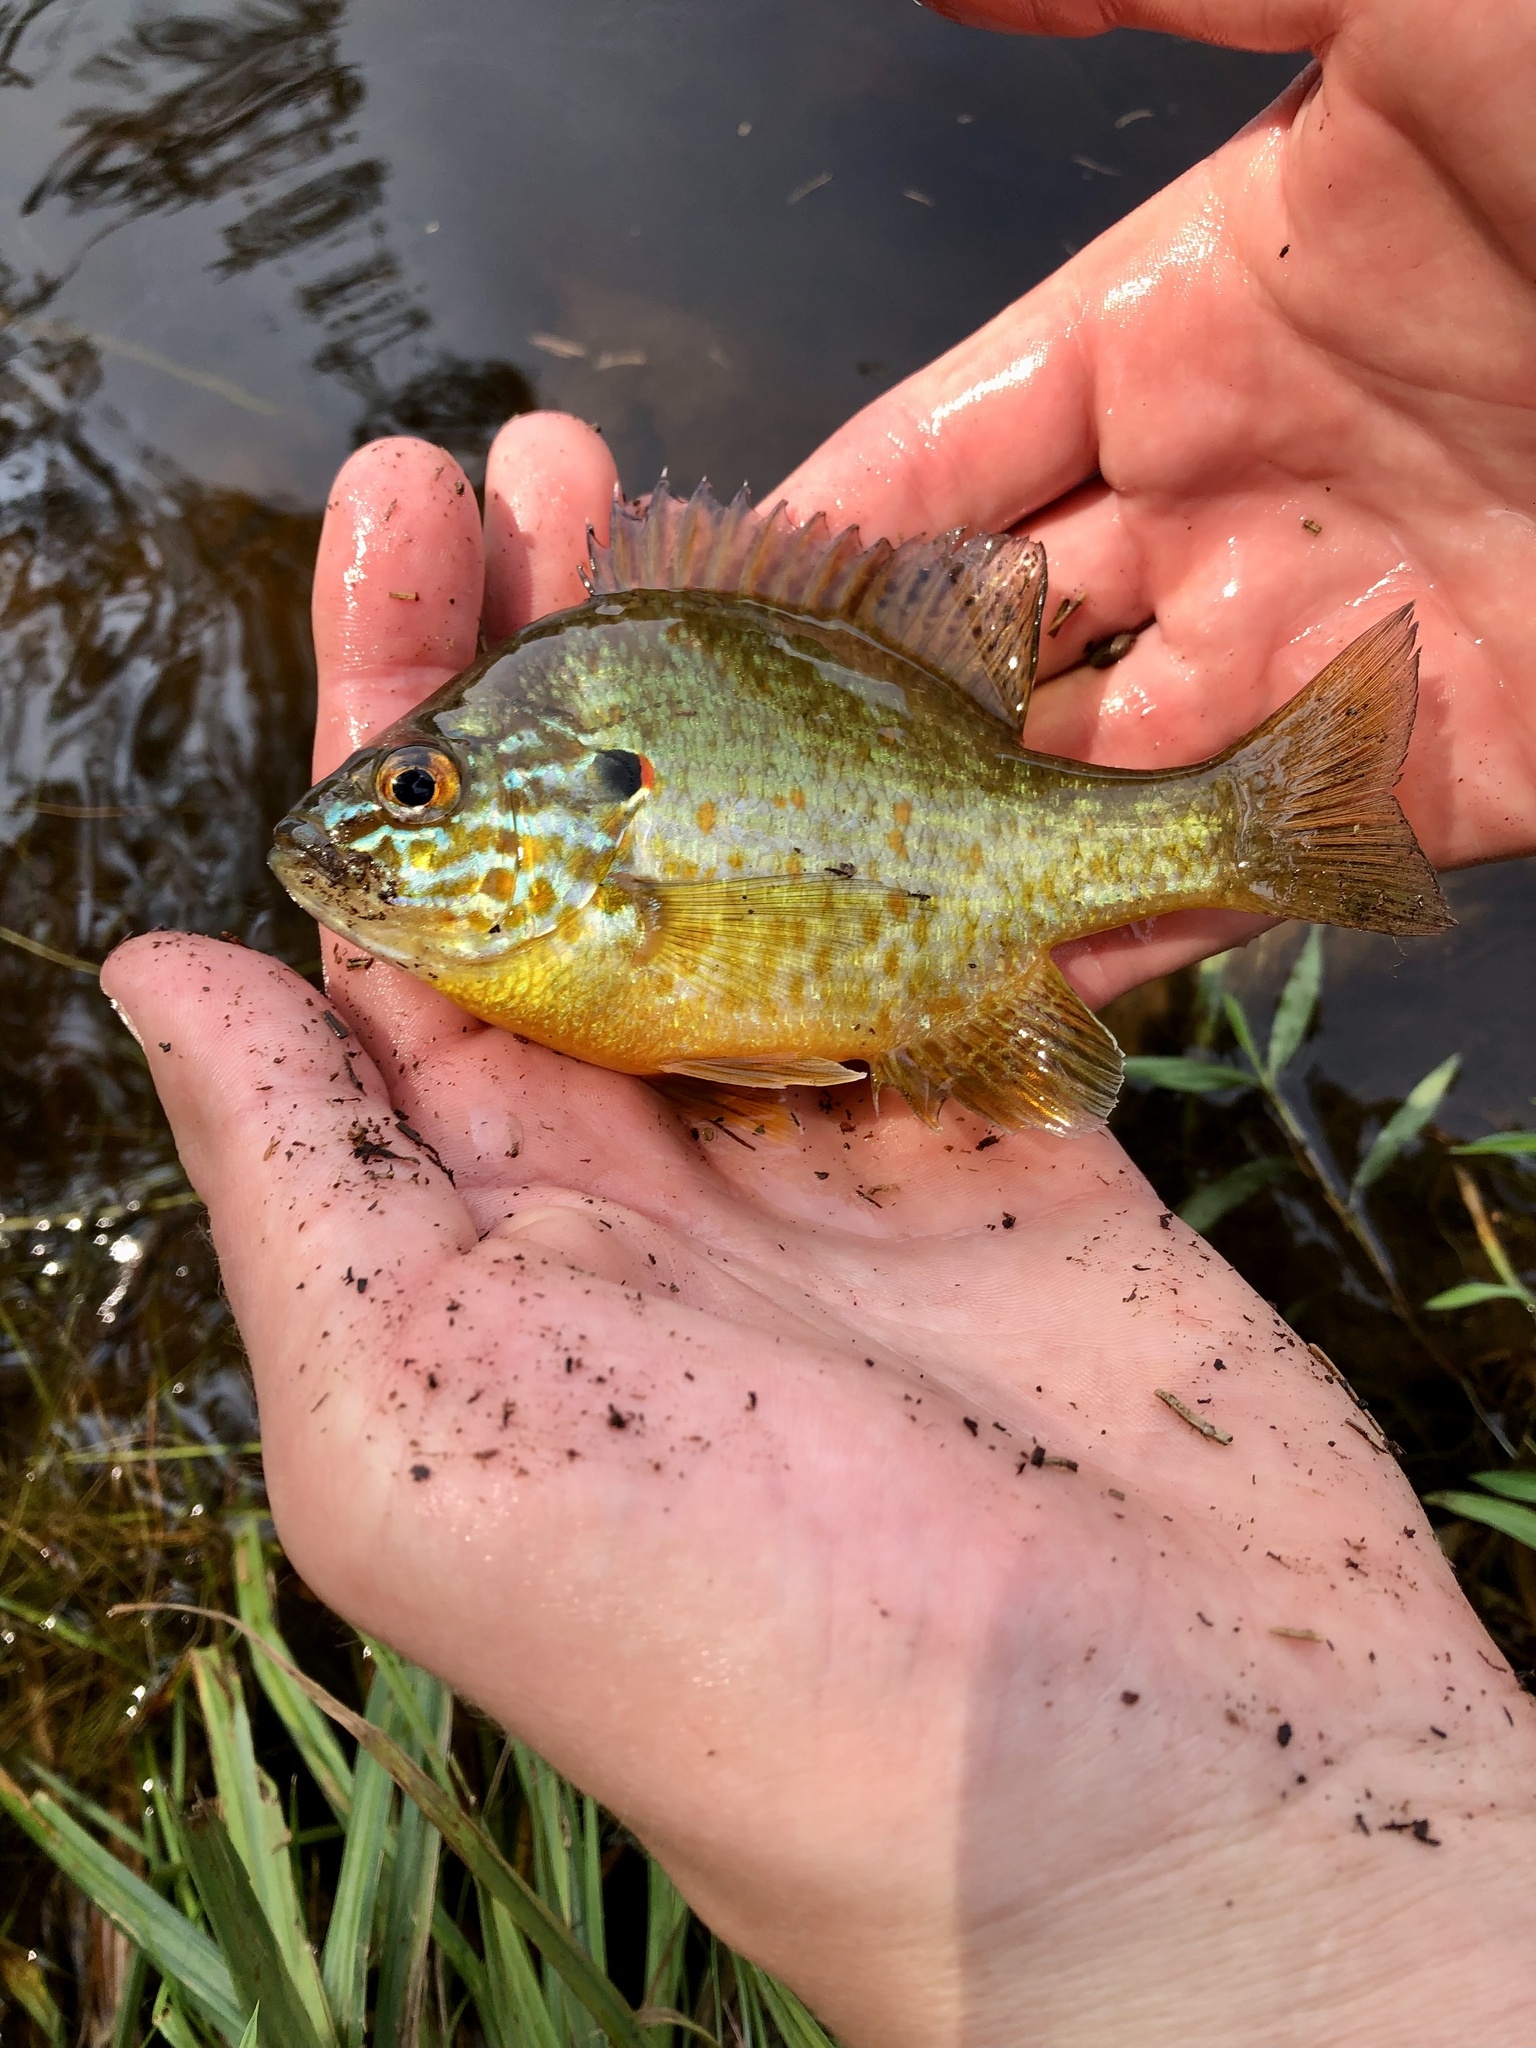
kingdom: Animalia
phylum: Chordata
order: Perciformes
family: Centrarchidae
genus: Lepomis
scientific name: Lepomis gibbosus
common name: Pumpkinseed
